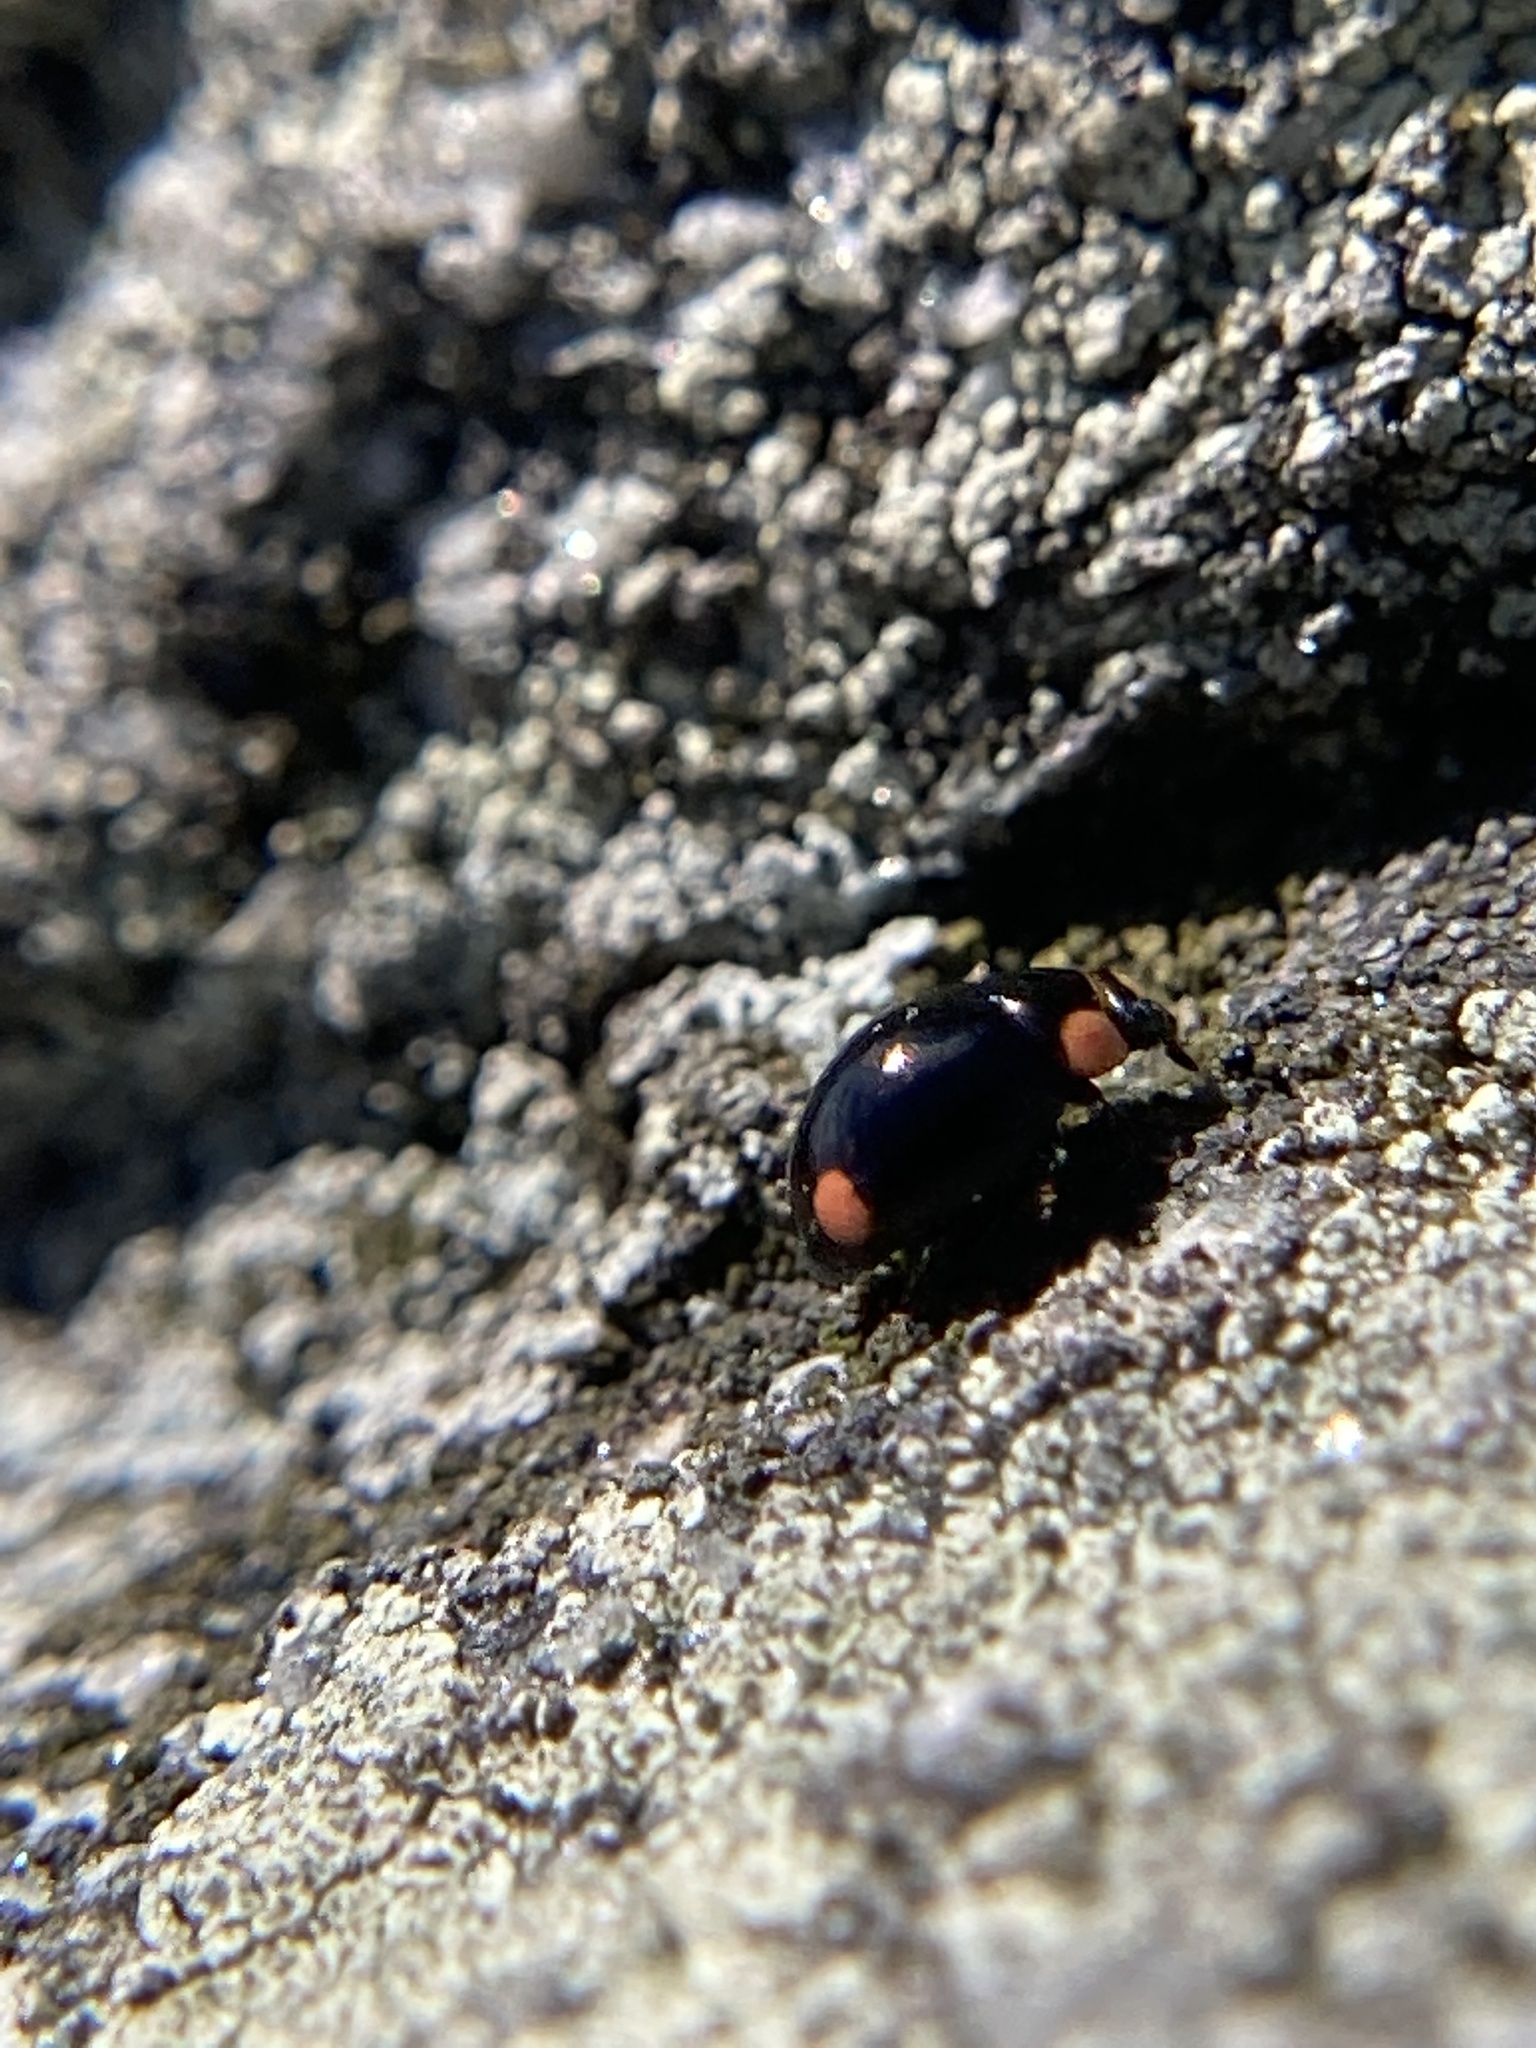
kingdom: Animalia
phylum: Arthropoda
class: Insecta
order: Coleoptera
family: Coccinellidae
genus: Hyperaspis
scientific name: Hyperaspis bigeminata
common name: Bigeminate sigil lady beetle
